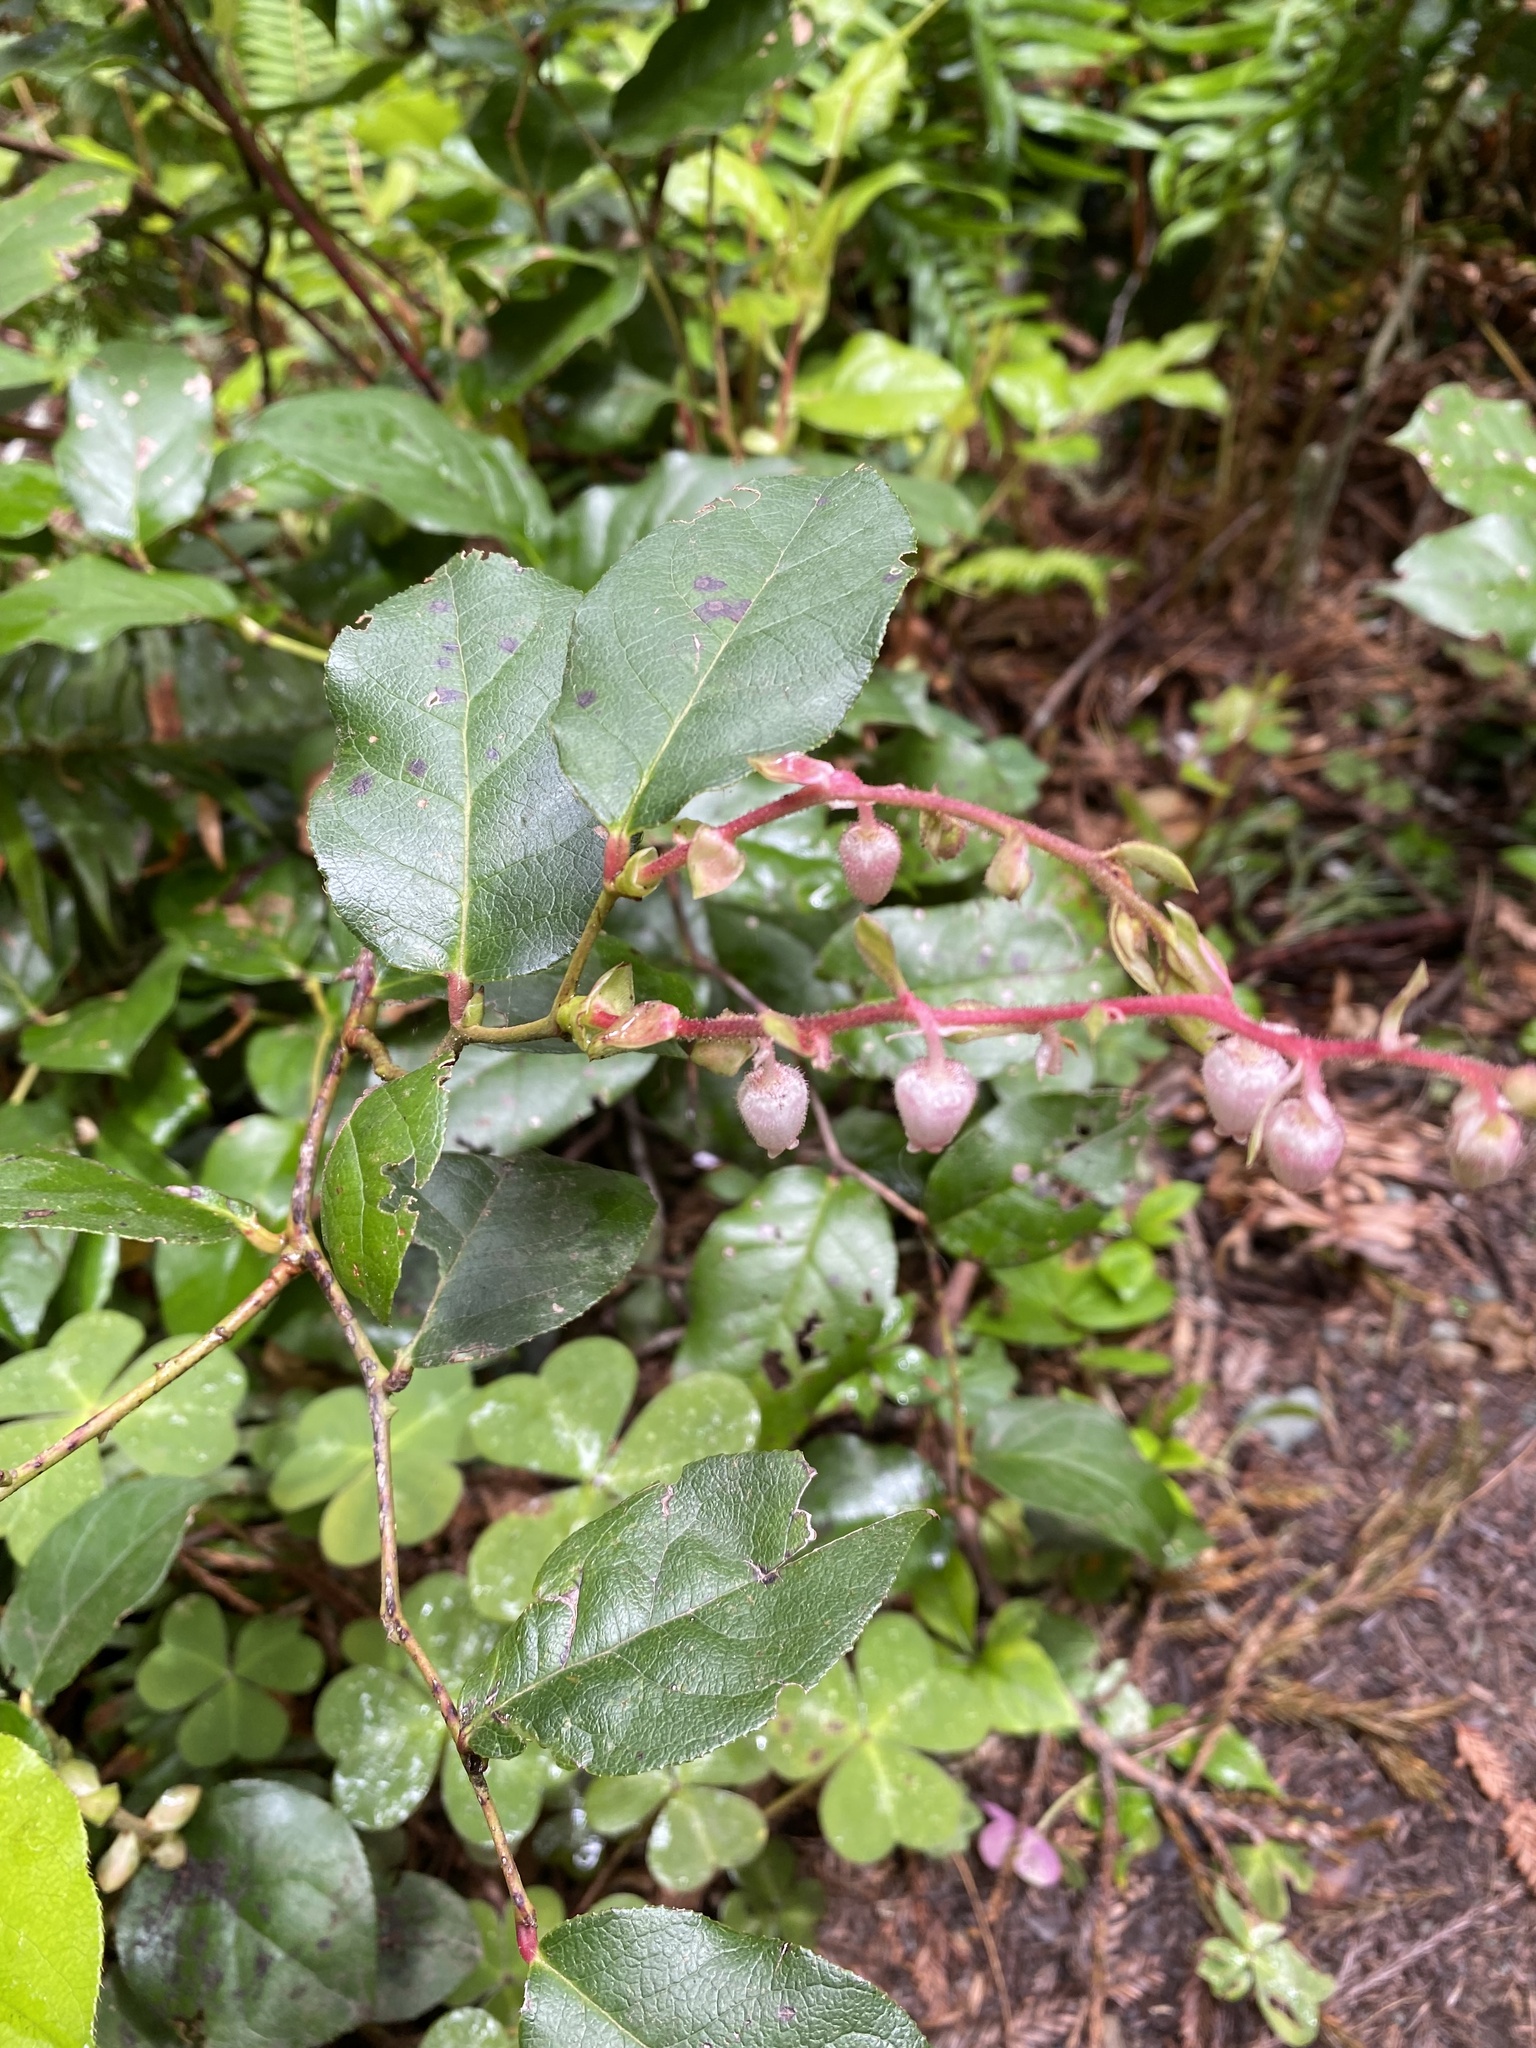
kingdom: Plantae
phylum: Tracheophyta
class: Magnoliopsida
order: Ericales
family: Ericaceae
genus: Gaultheria
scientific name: Gaultheria shallon
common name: Shallon
